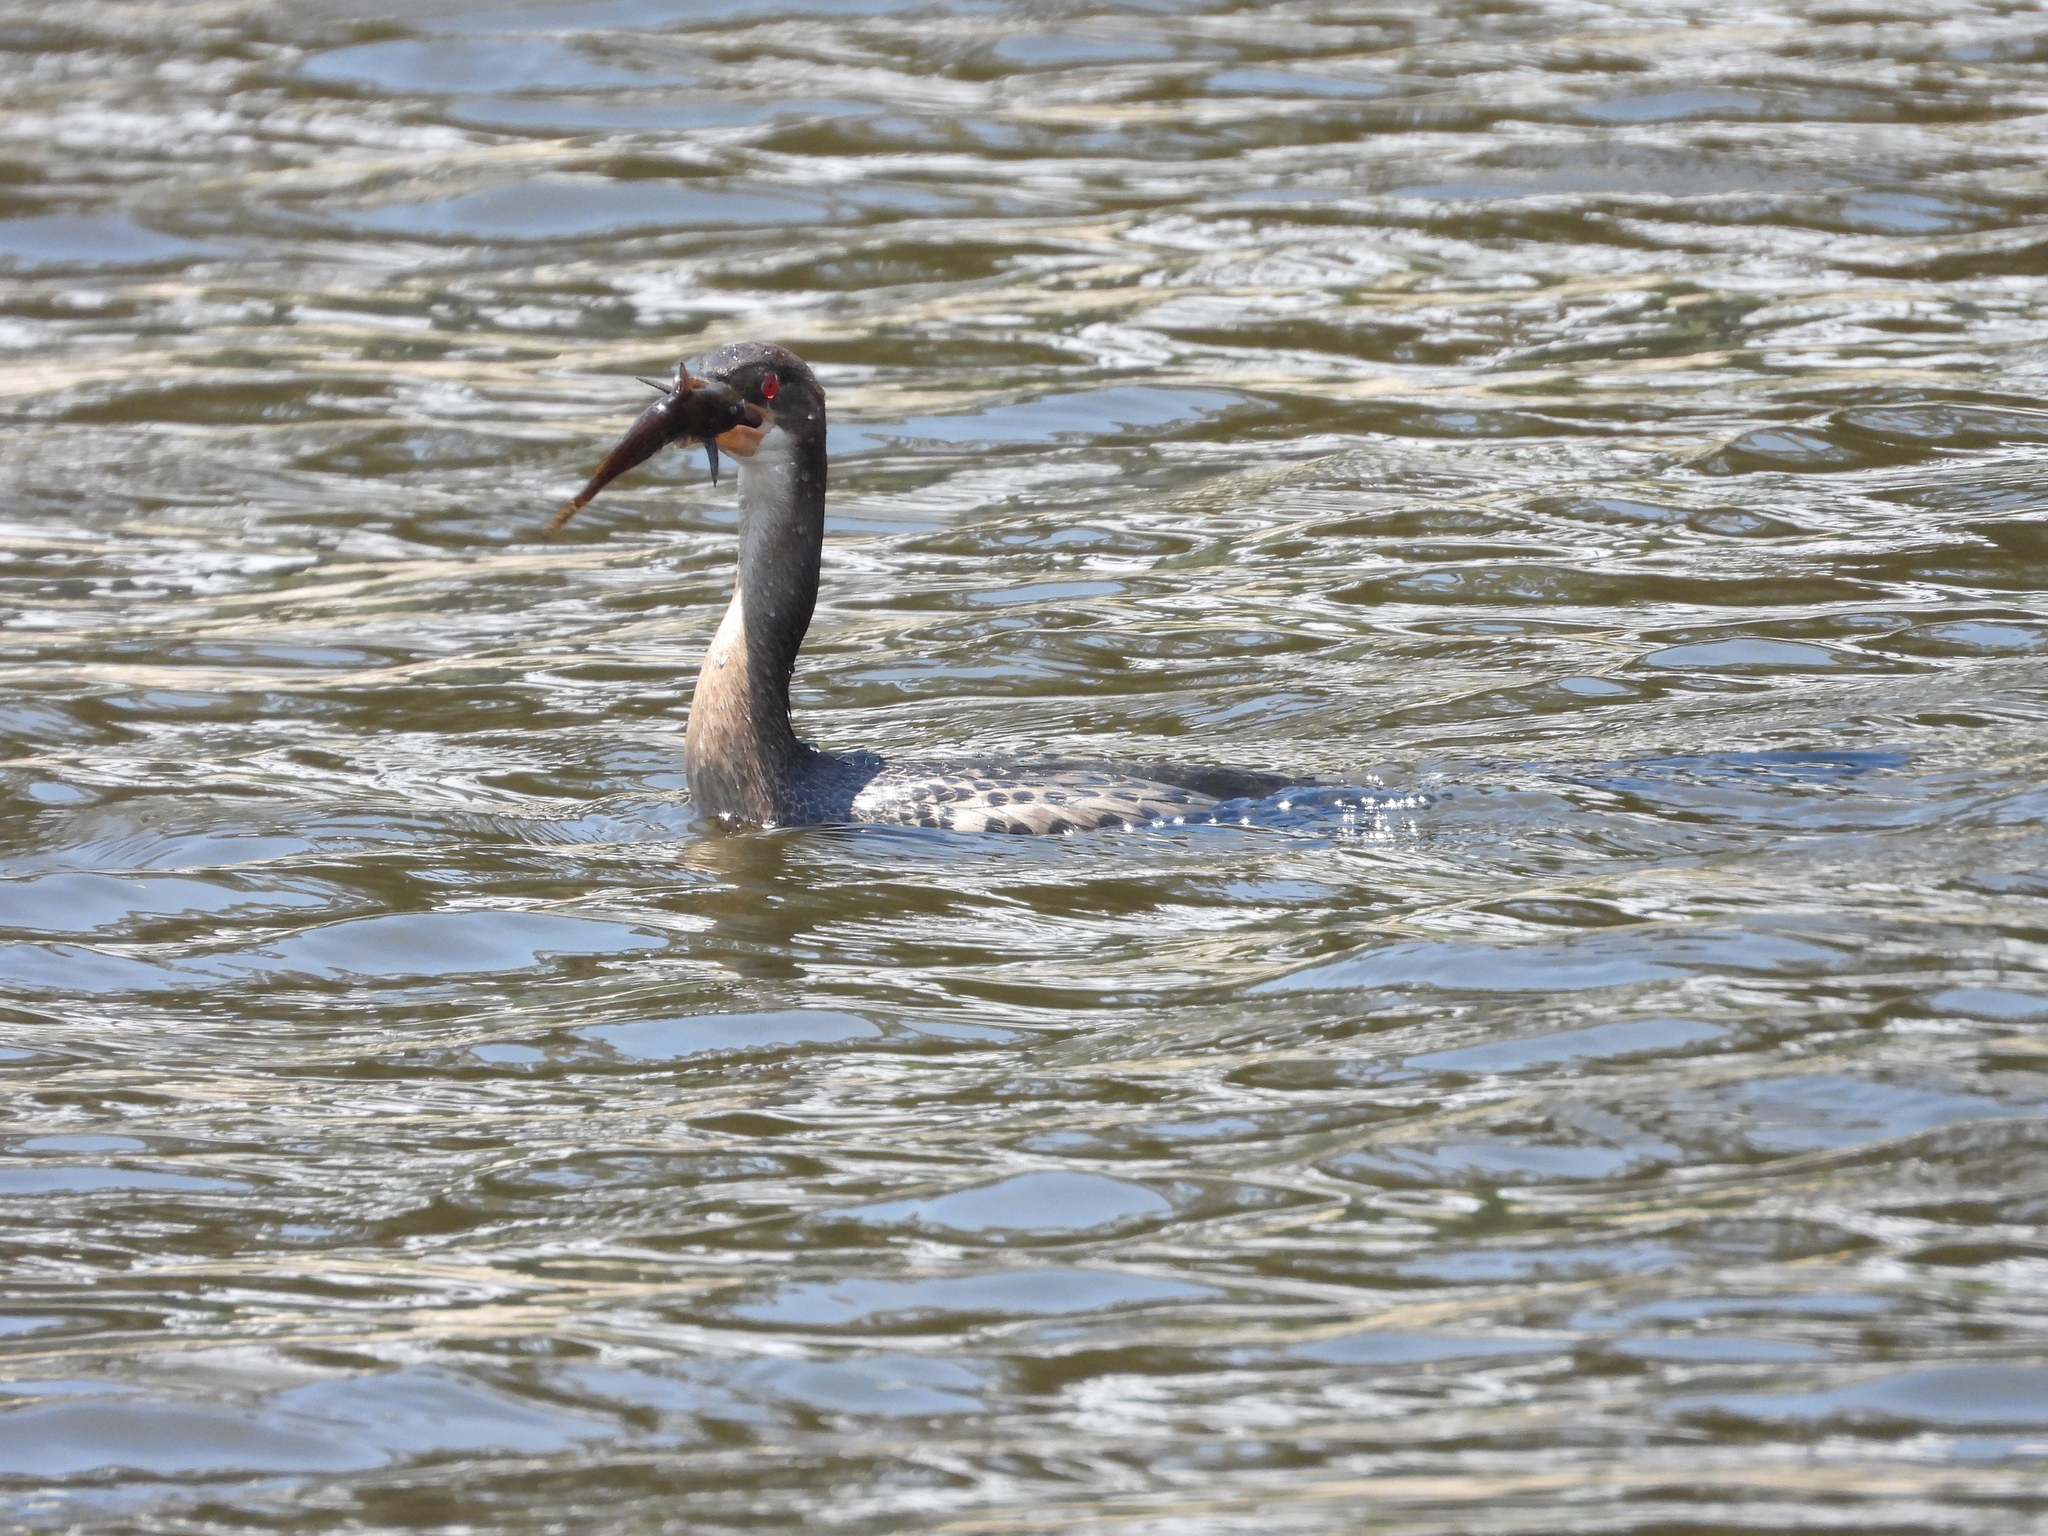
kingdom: Animalia
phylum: Chordata
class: Aves
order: Suliformes
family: Phalacrocoracidae
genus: Microcarbo
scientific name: Microcarbo africanus
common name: Long-tailed cormorant
